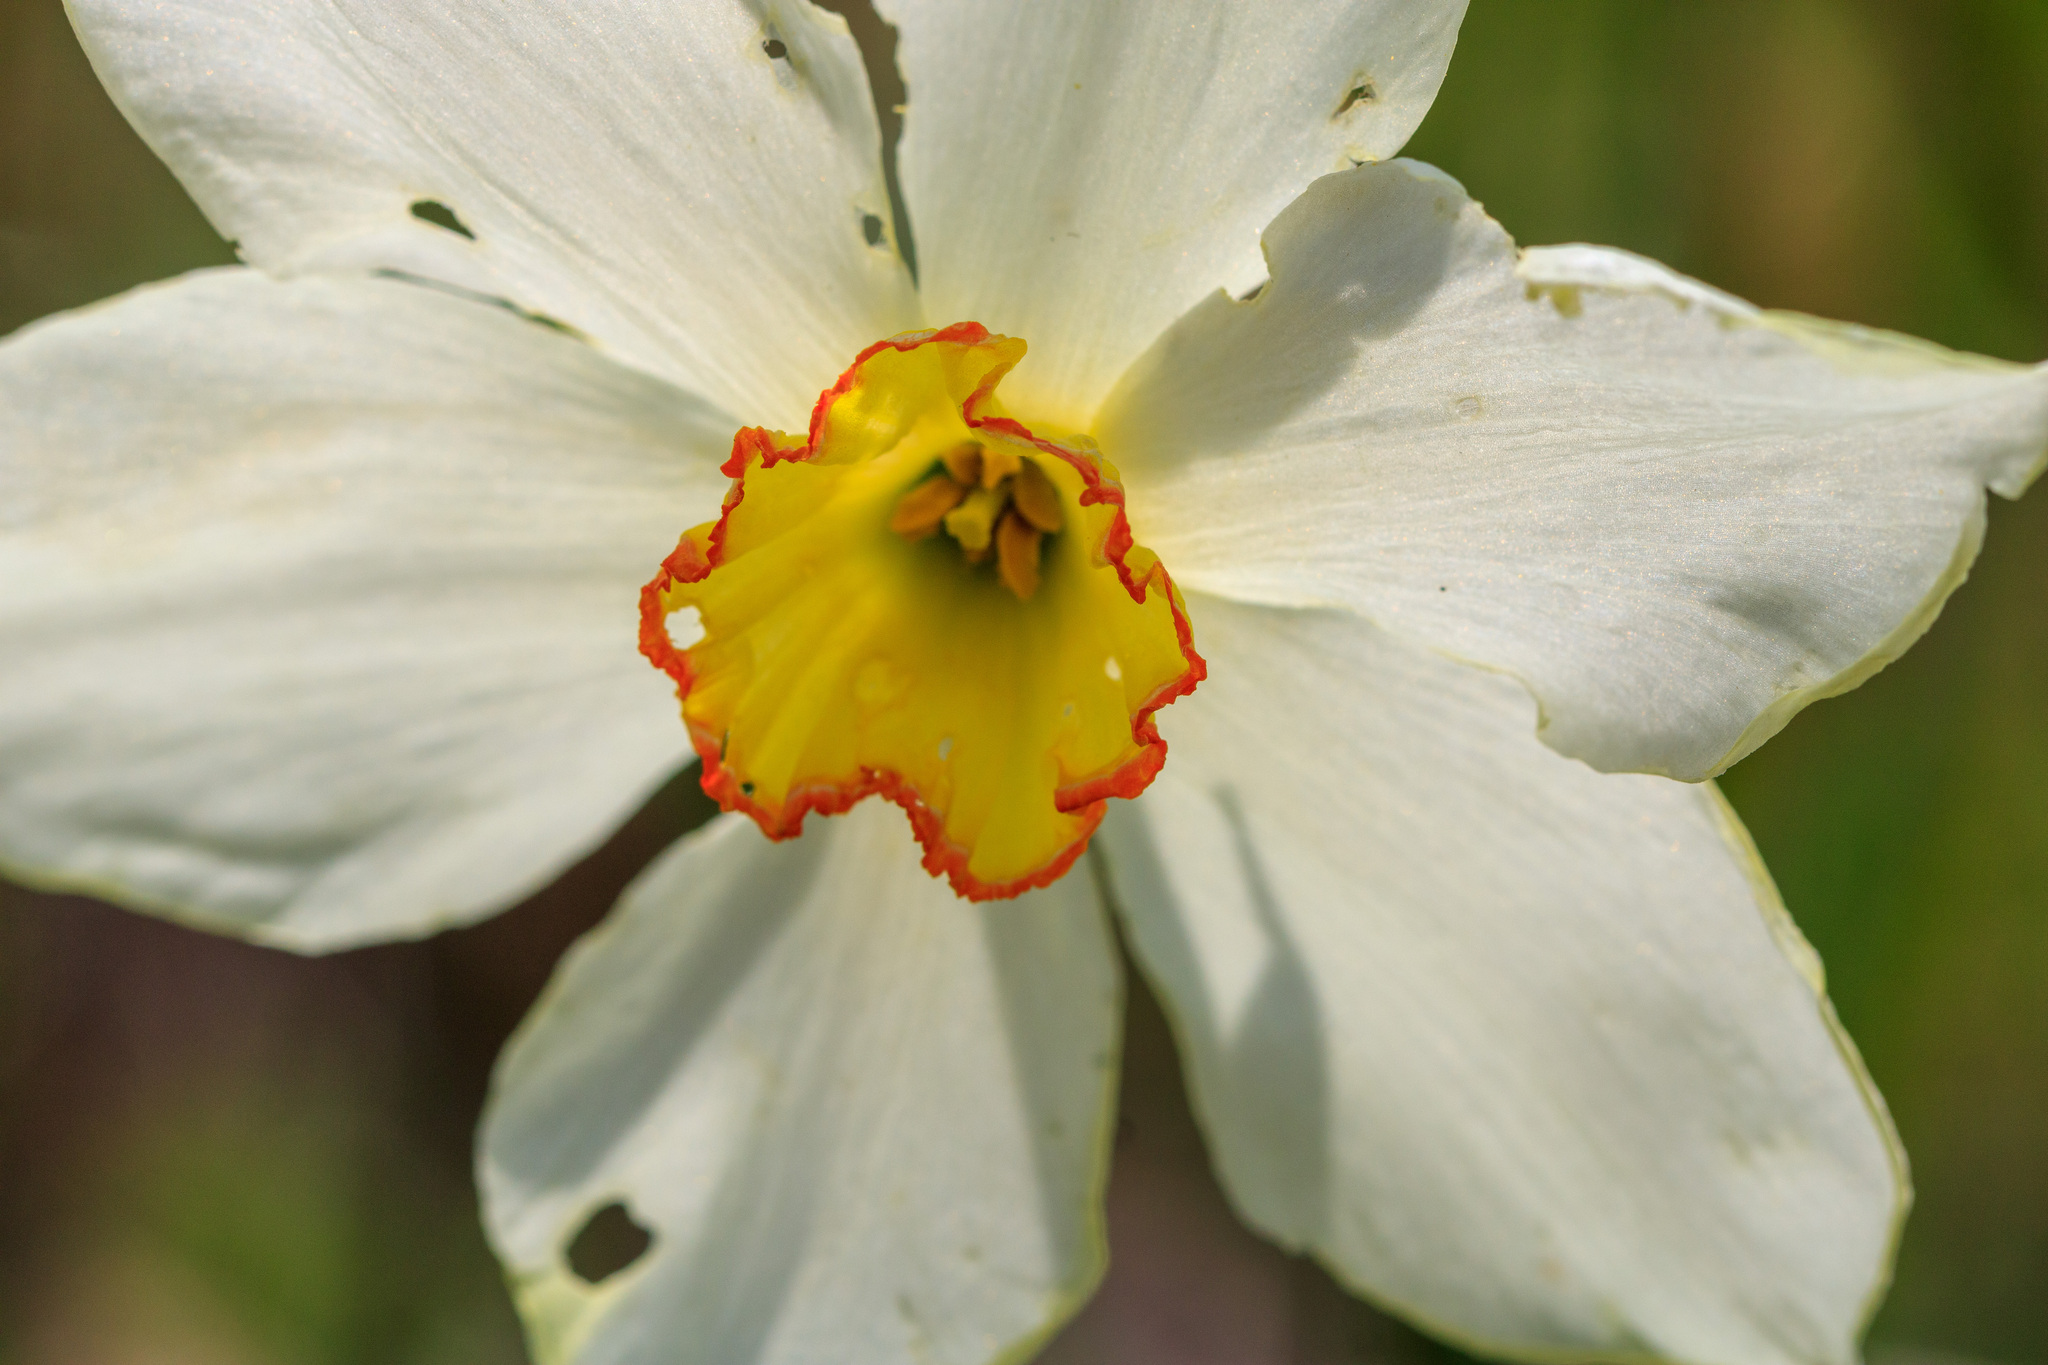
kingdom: Plantae
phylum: Tracheophyta
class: Liliopsida
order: Asparagales
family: Amaryllidaceae
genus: Narcissus
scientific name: Narcissus poeticus
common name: Pheasant's-eye daffodil
